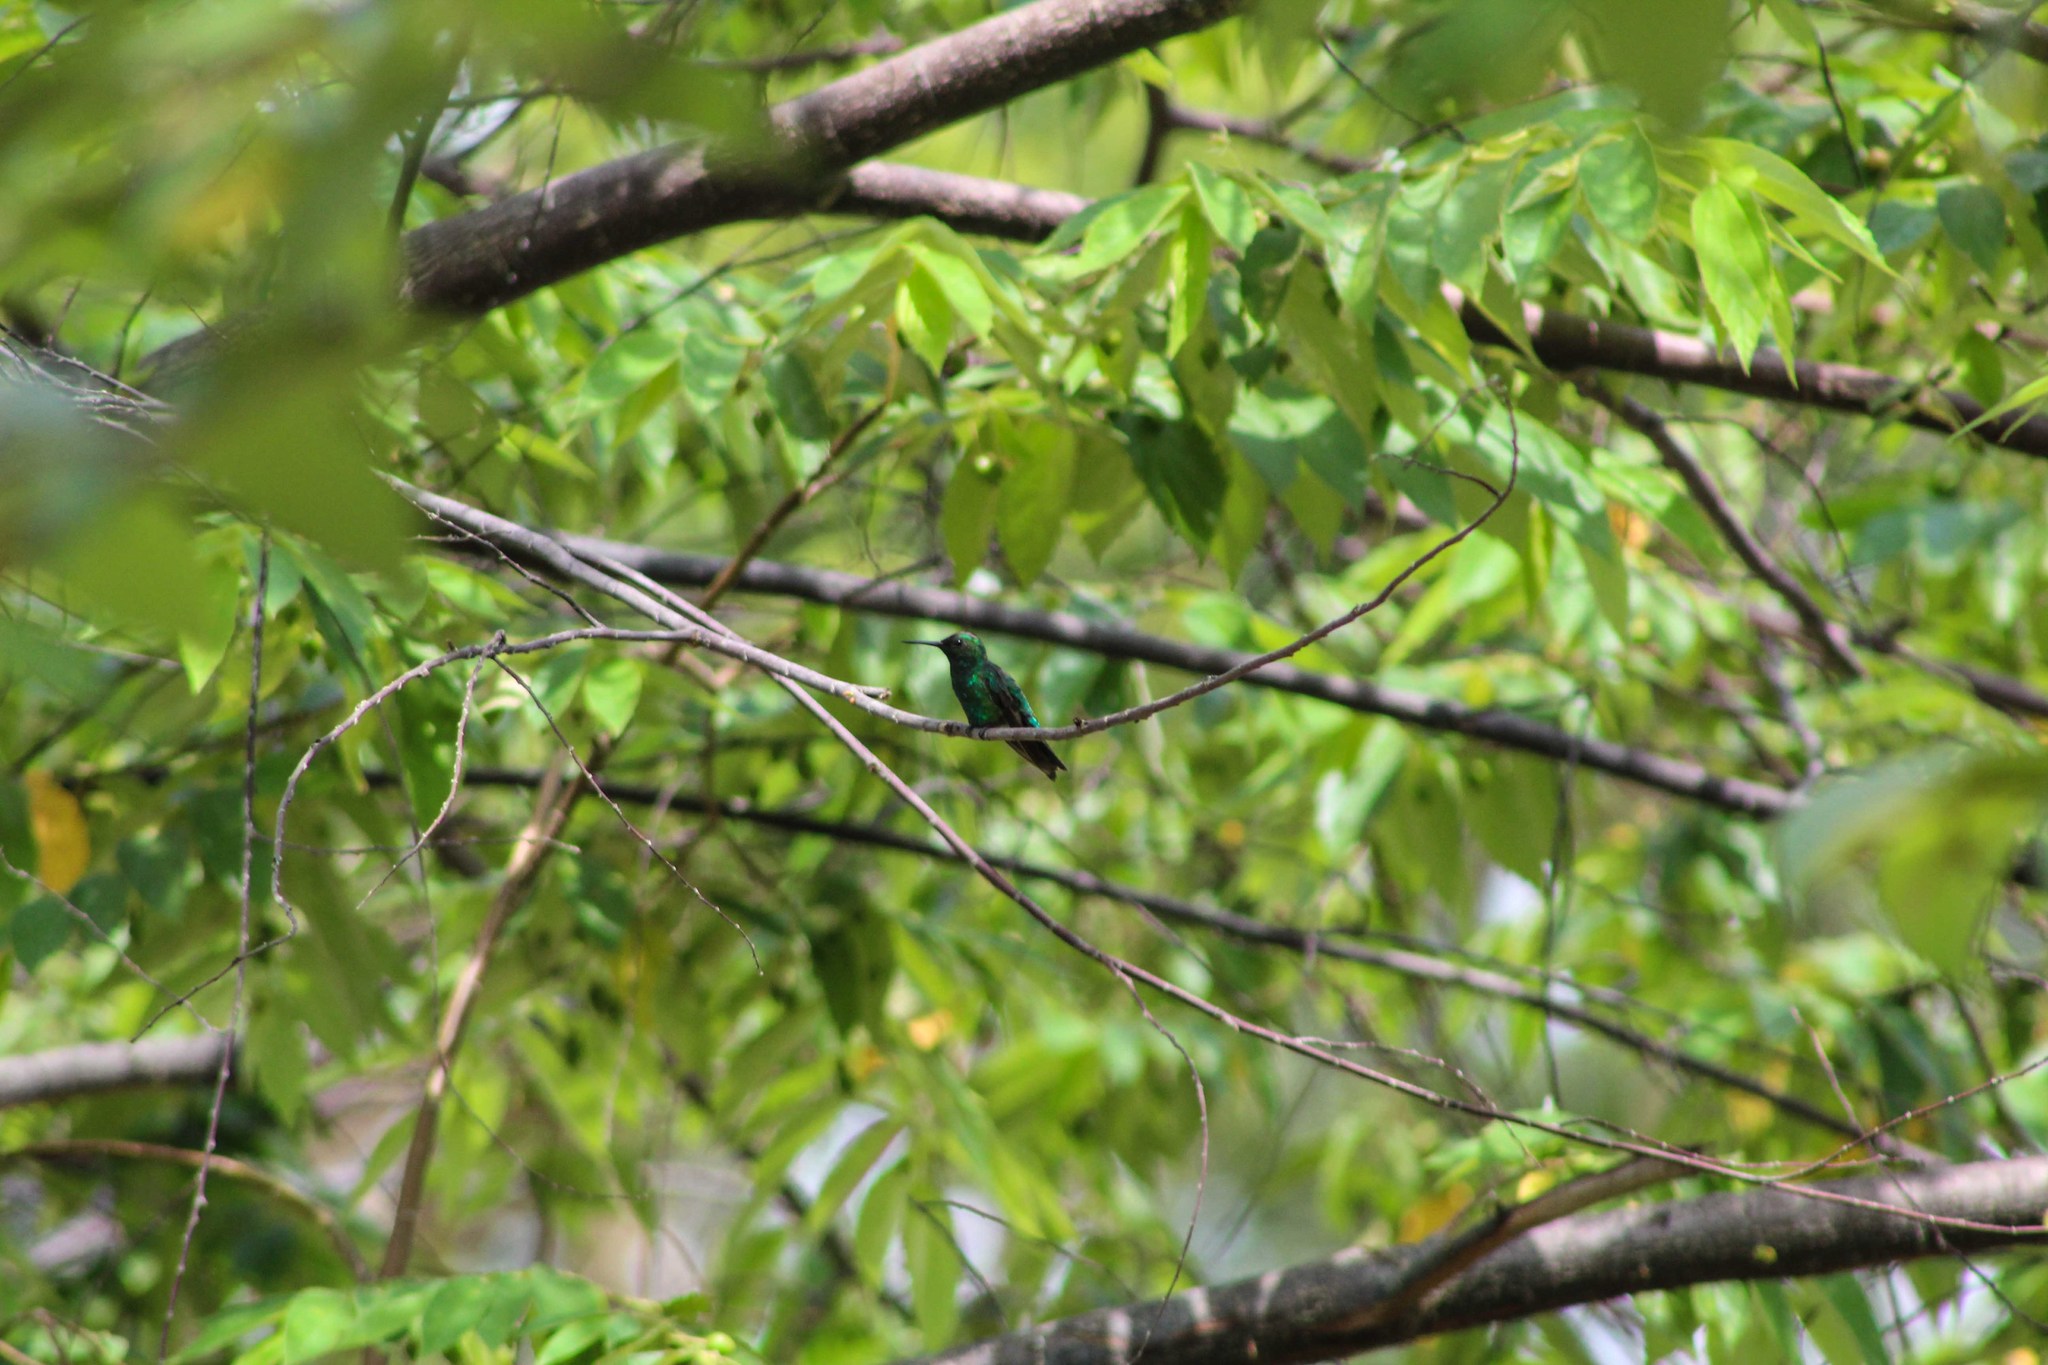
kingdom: Animalia
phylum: Chordata
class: Aves
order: Apodiformes
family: Trochilidae
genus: Chlorostilbon
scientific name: Chlorostilbon assimilis
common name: Garden emerald
